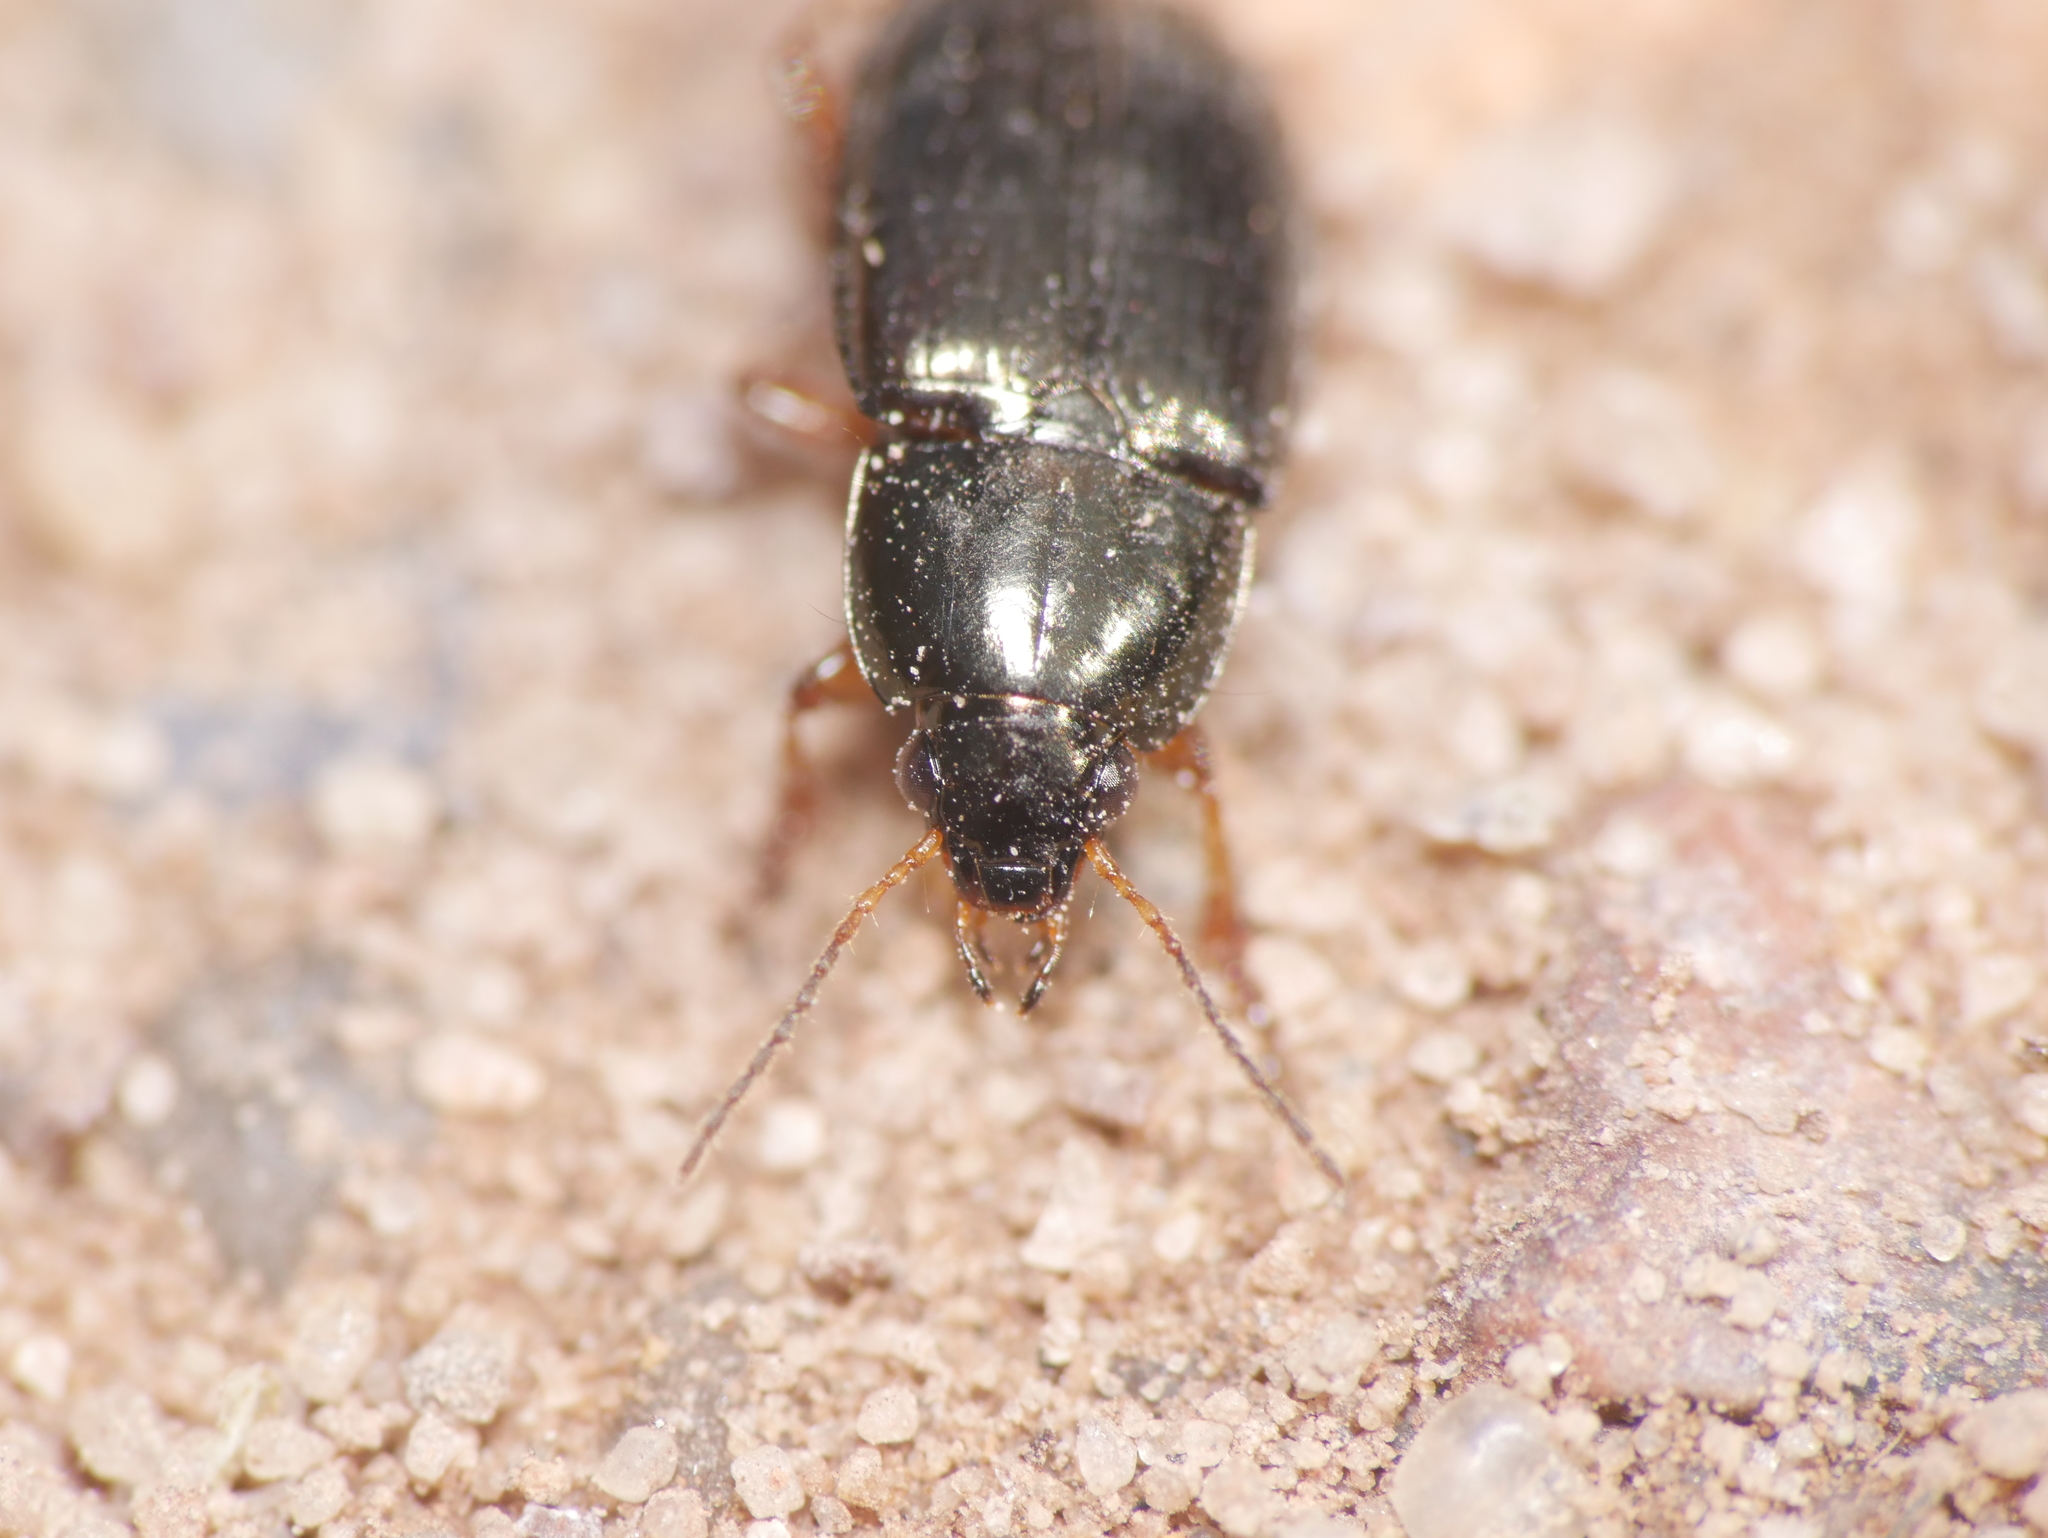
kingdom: Animalia
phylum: Arthropoda
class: Insecta
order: Coleoptera
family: Carabidae
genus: Amara
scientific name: Amara familiaris
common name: Familiar harp round beetle
